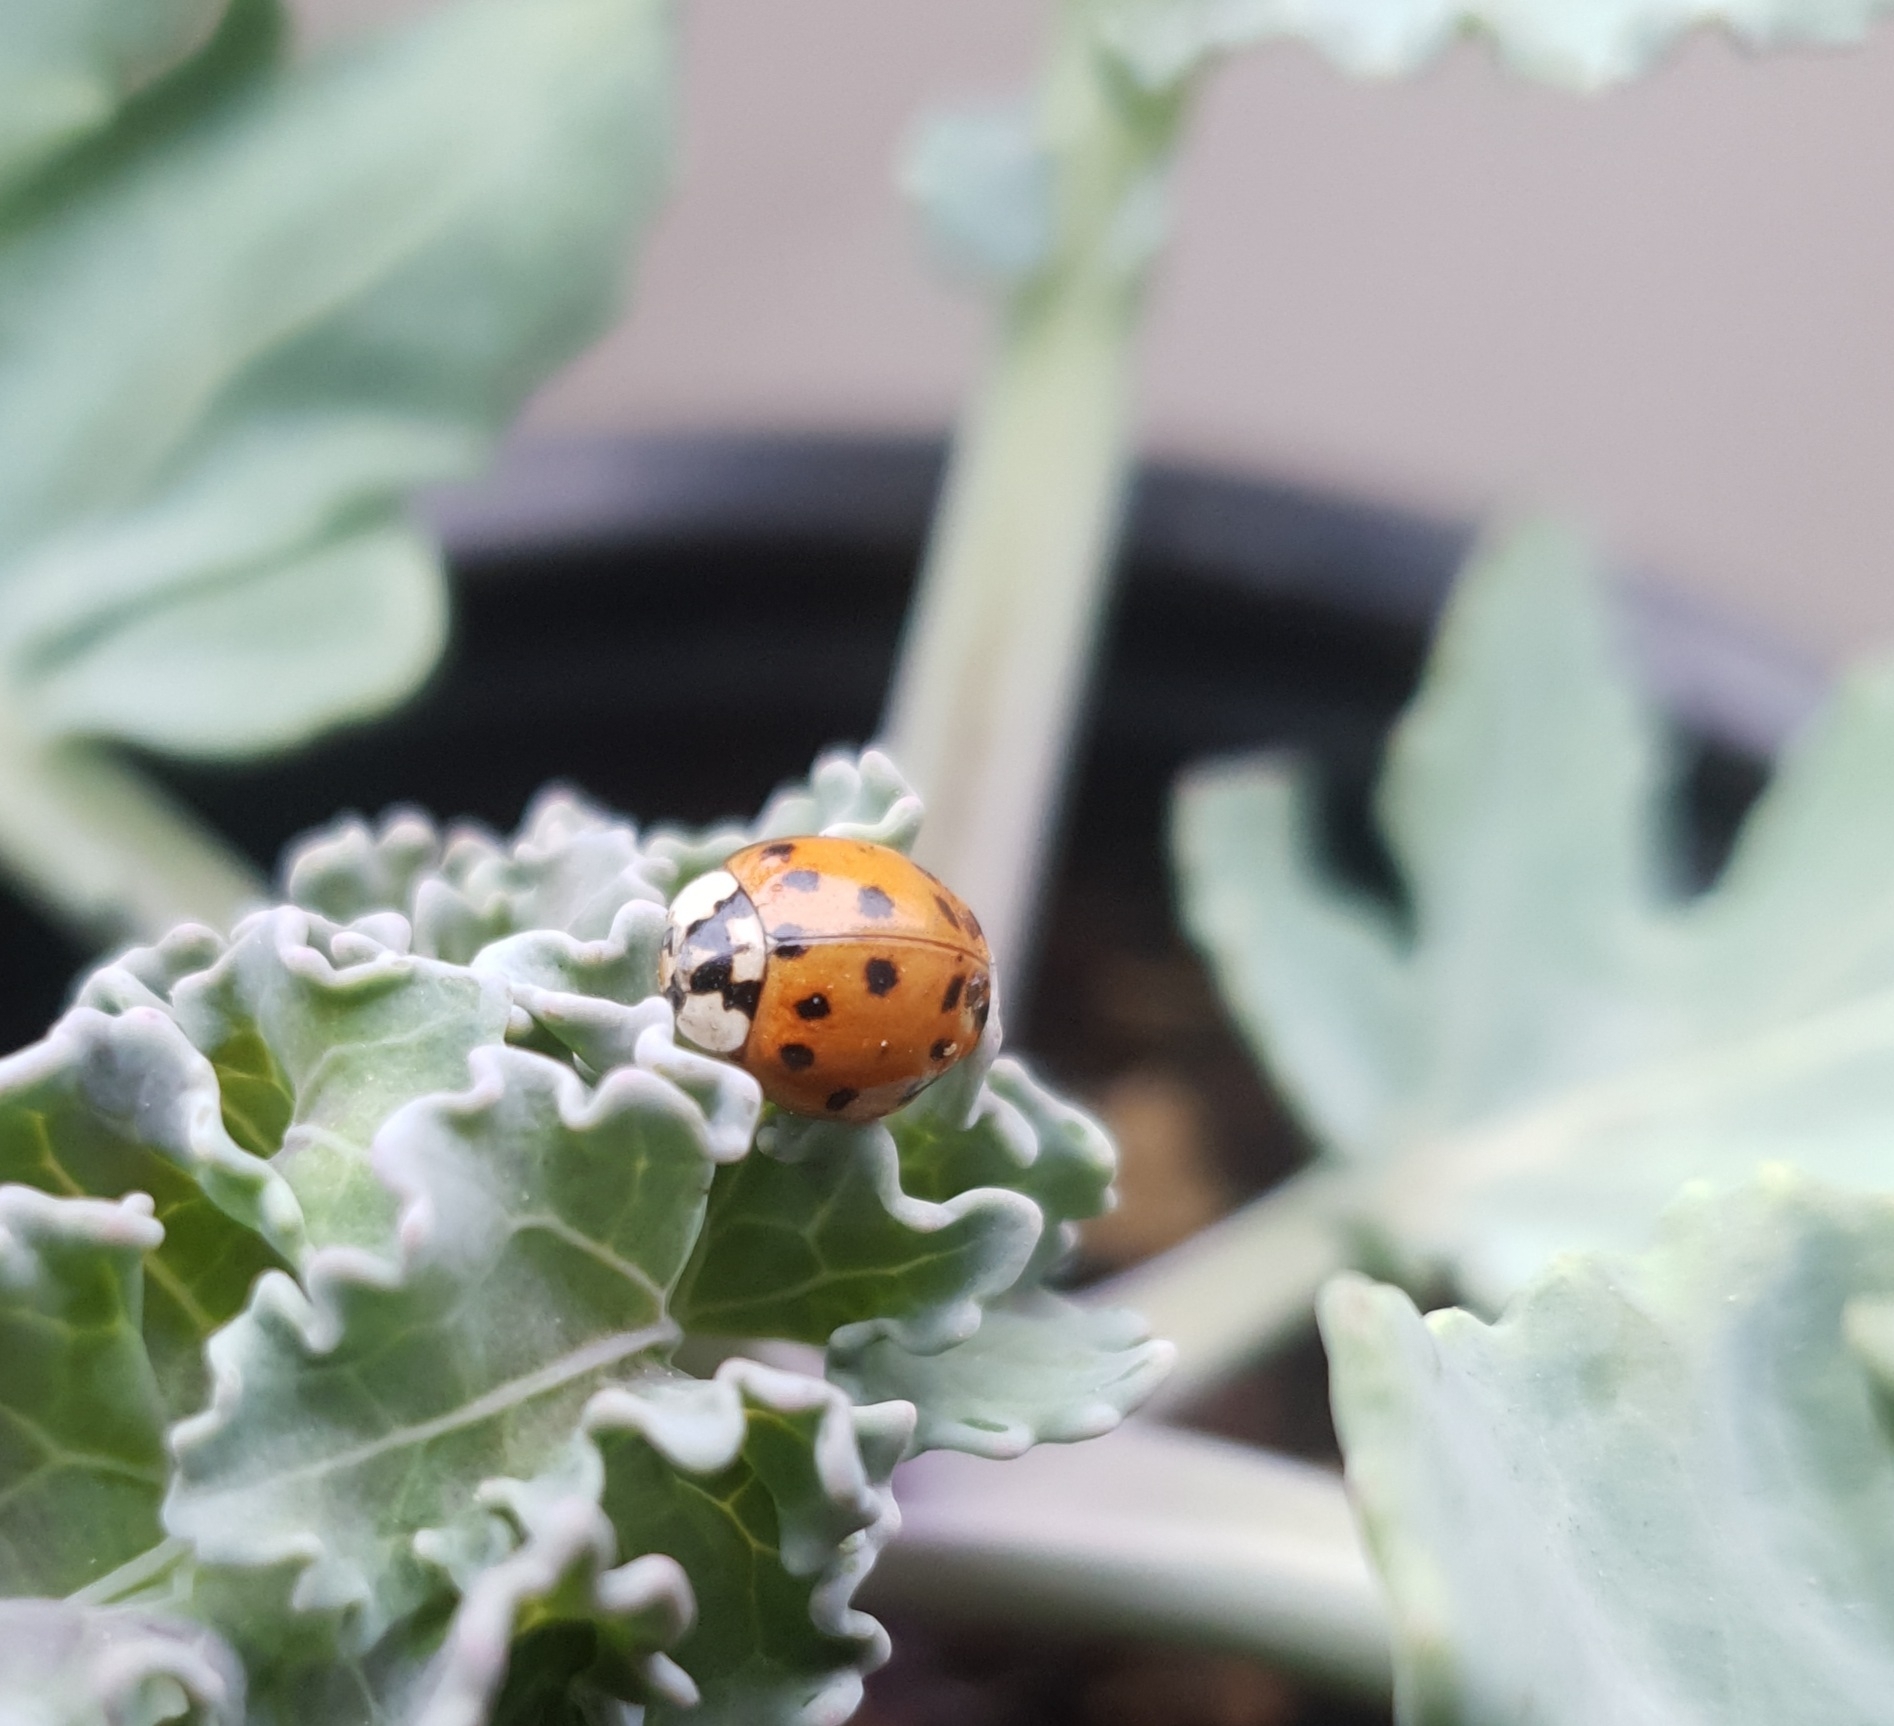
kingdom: Animalia
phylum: Arthropoda
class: Insecta
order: Coleoptera
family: Coccinellidae
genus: Harmonia
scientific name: Harmonia axyridis
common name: Harlequin ladybird
